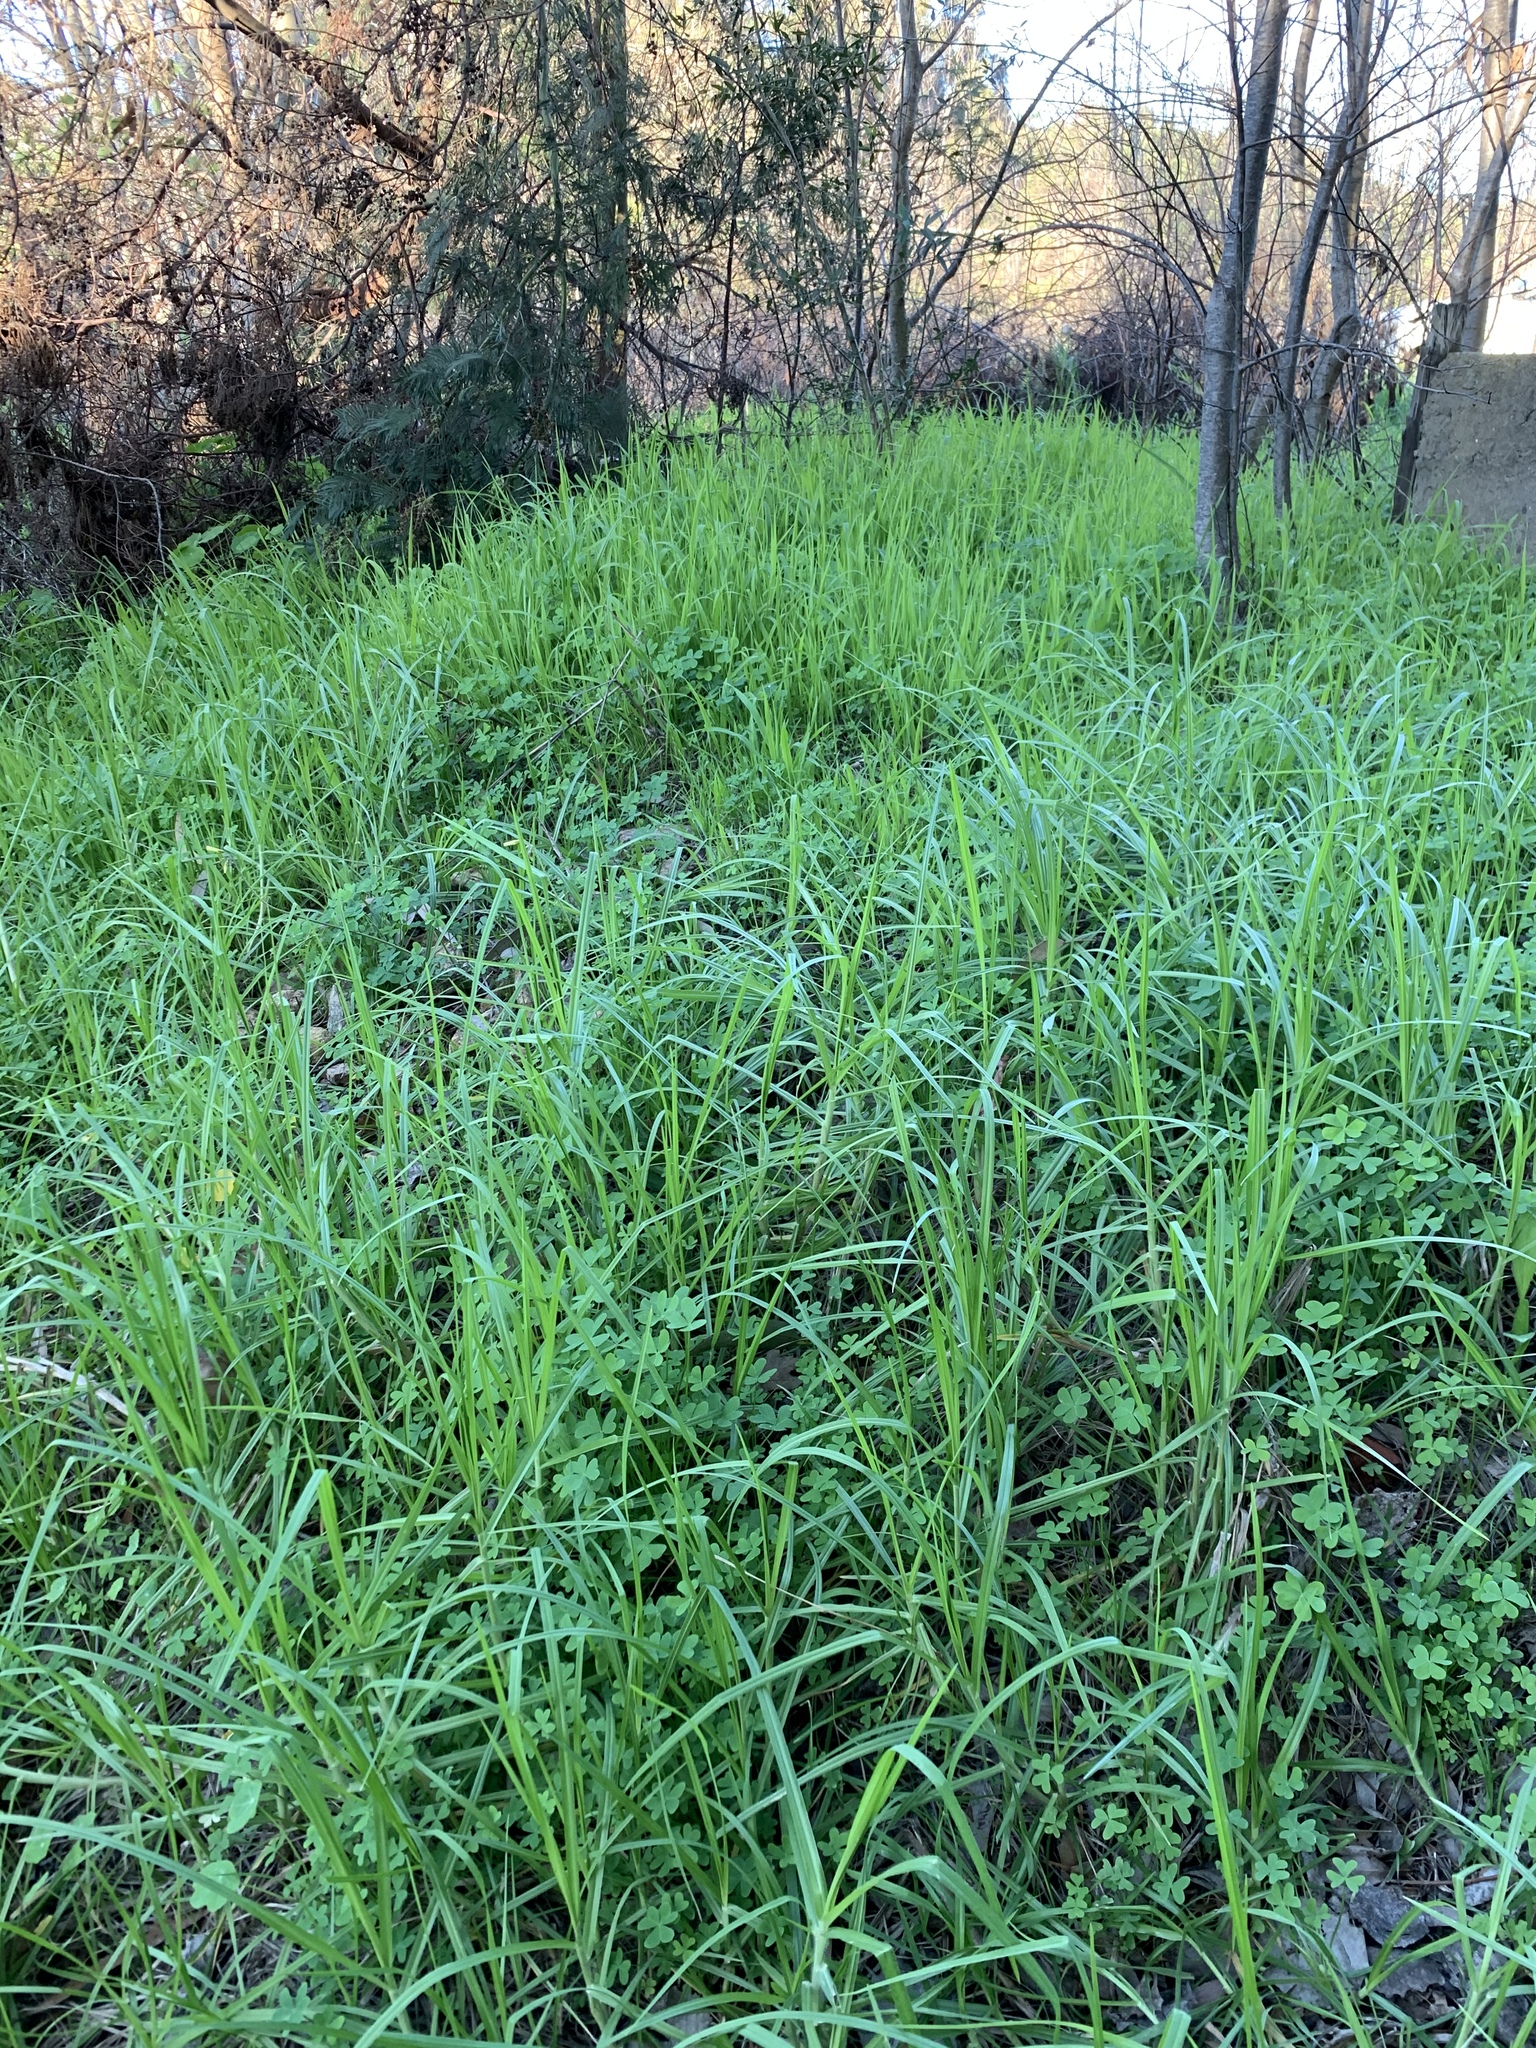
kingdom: Plantae
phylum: Tracheophyta
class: Liliopsida
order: Poales
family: Poaceae
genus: Cenchrus
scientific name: Cenchrus clandestinus
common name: Kikuyugrass
